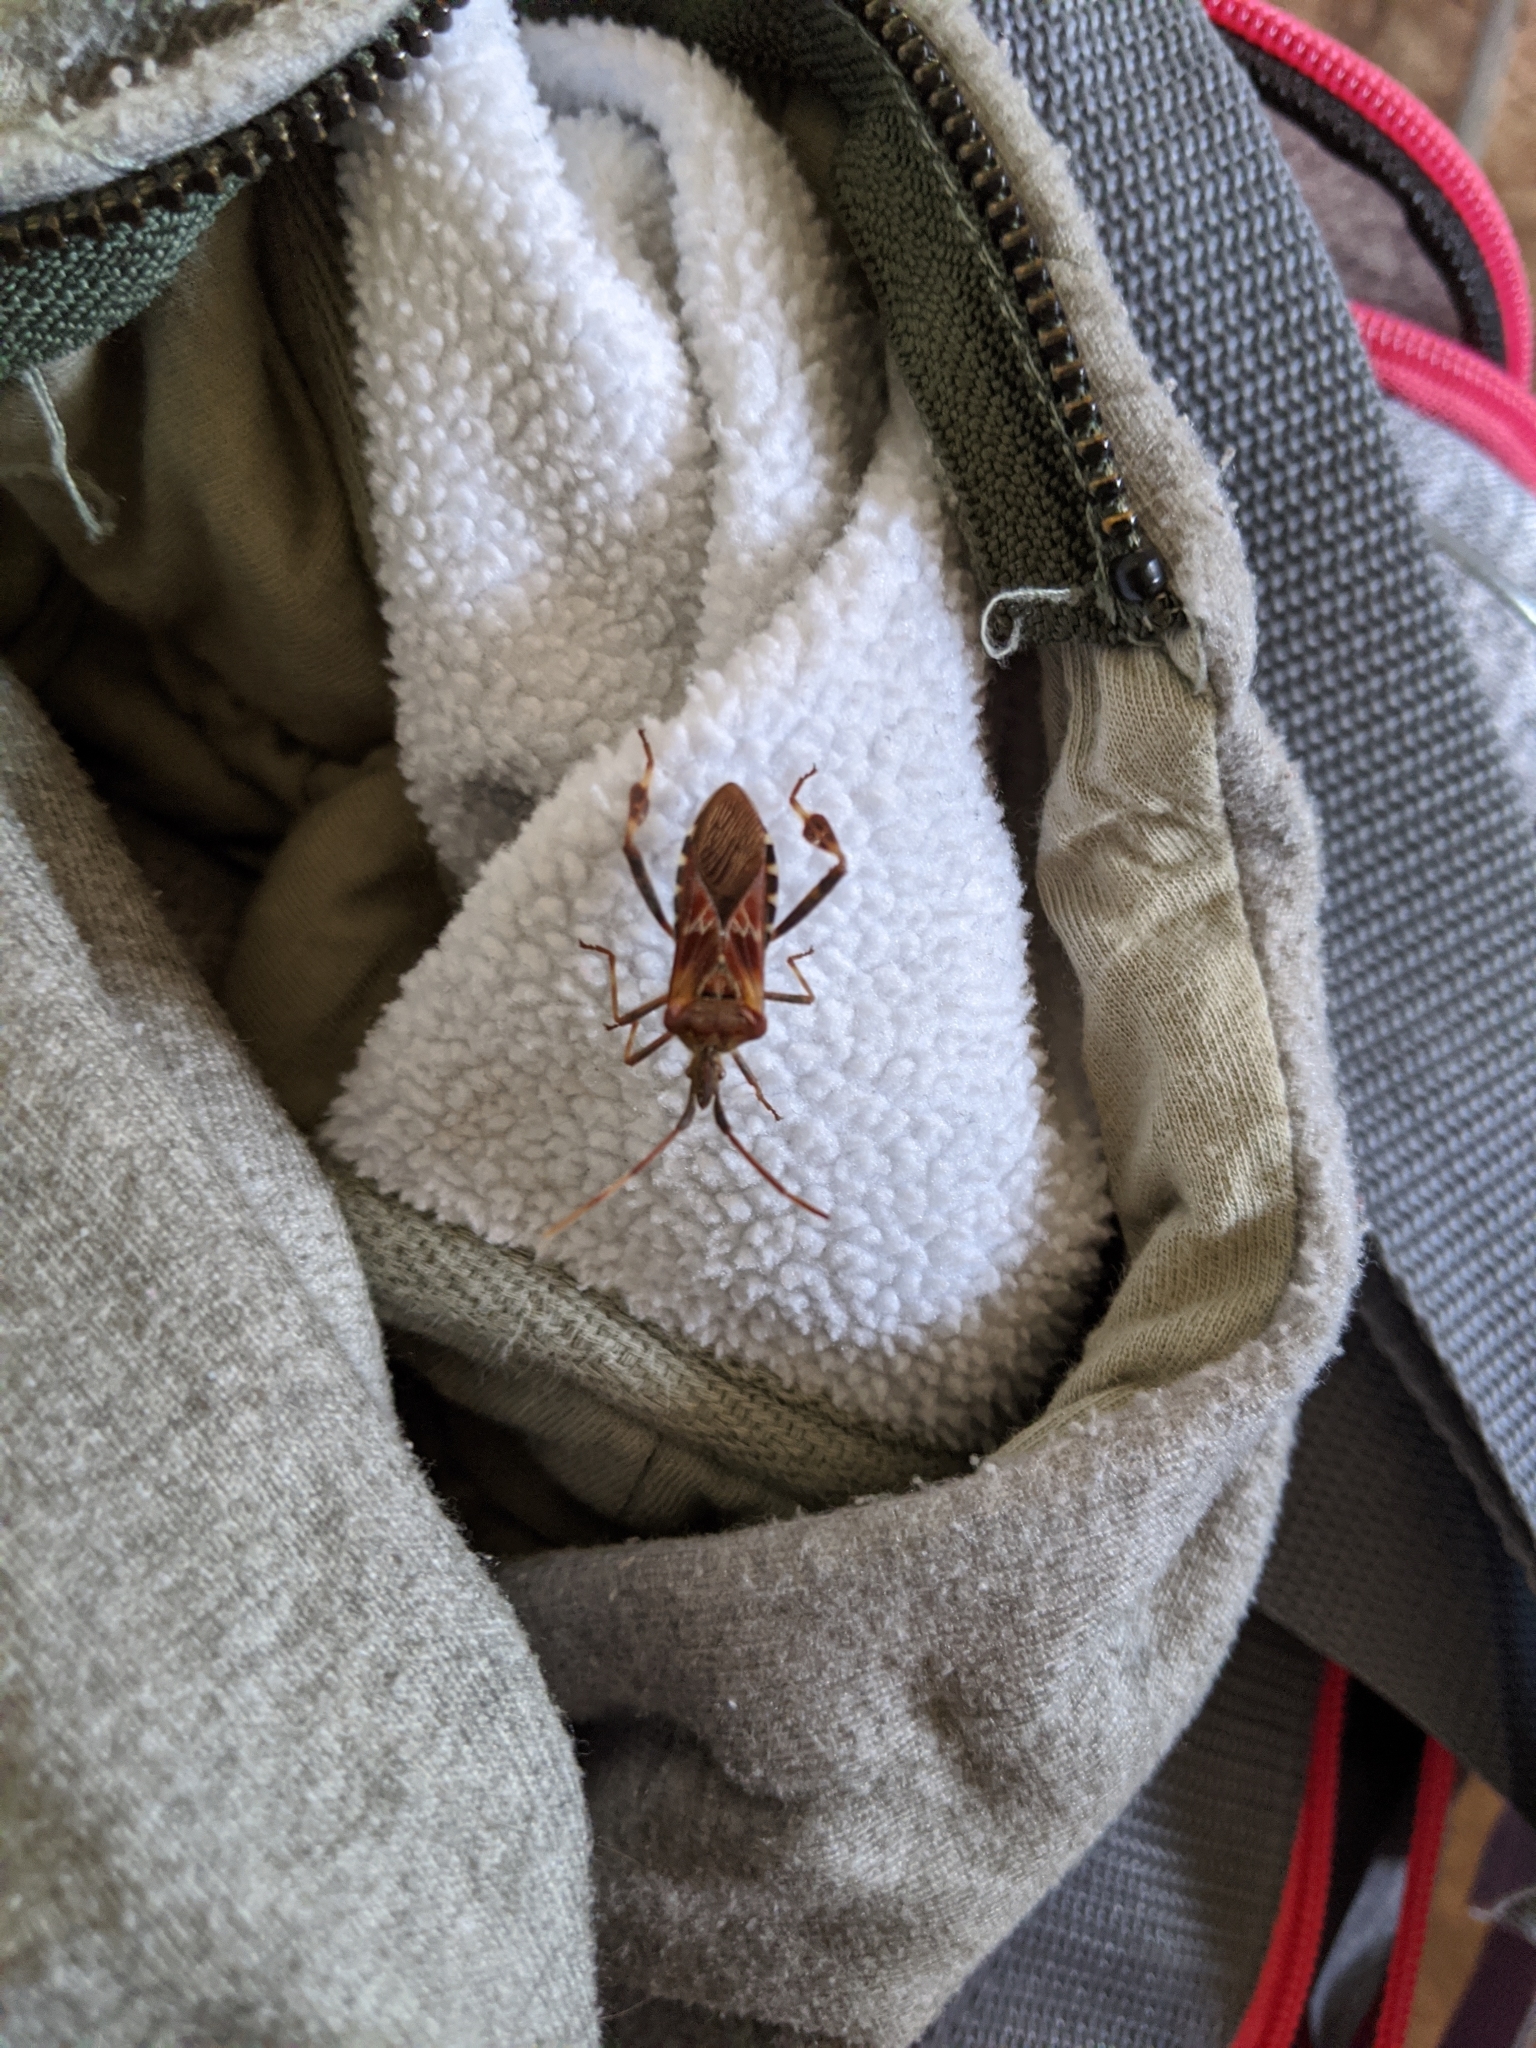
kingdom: Animalia
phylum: Arthropoda
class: Insecta
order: Hemiptera
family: Coreidae
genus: Leptoglossus
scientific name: Leptoglossus occidentalis
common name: Western conifer-seed bug
